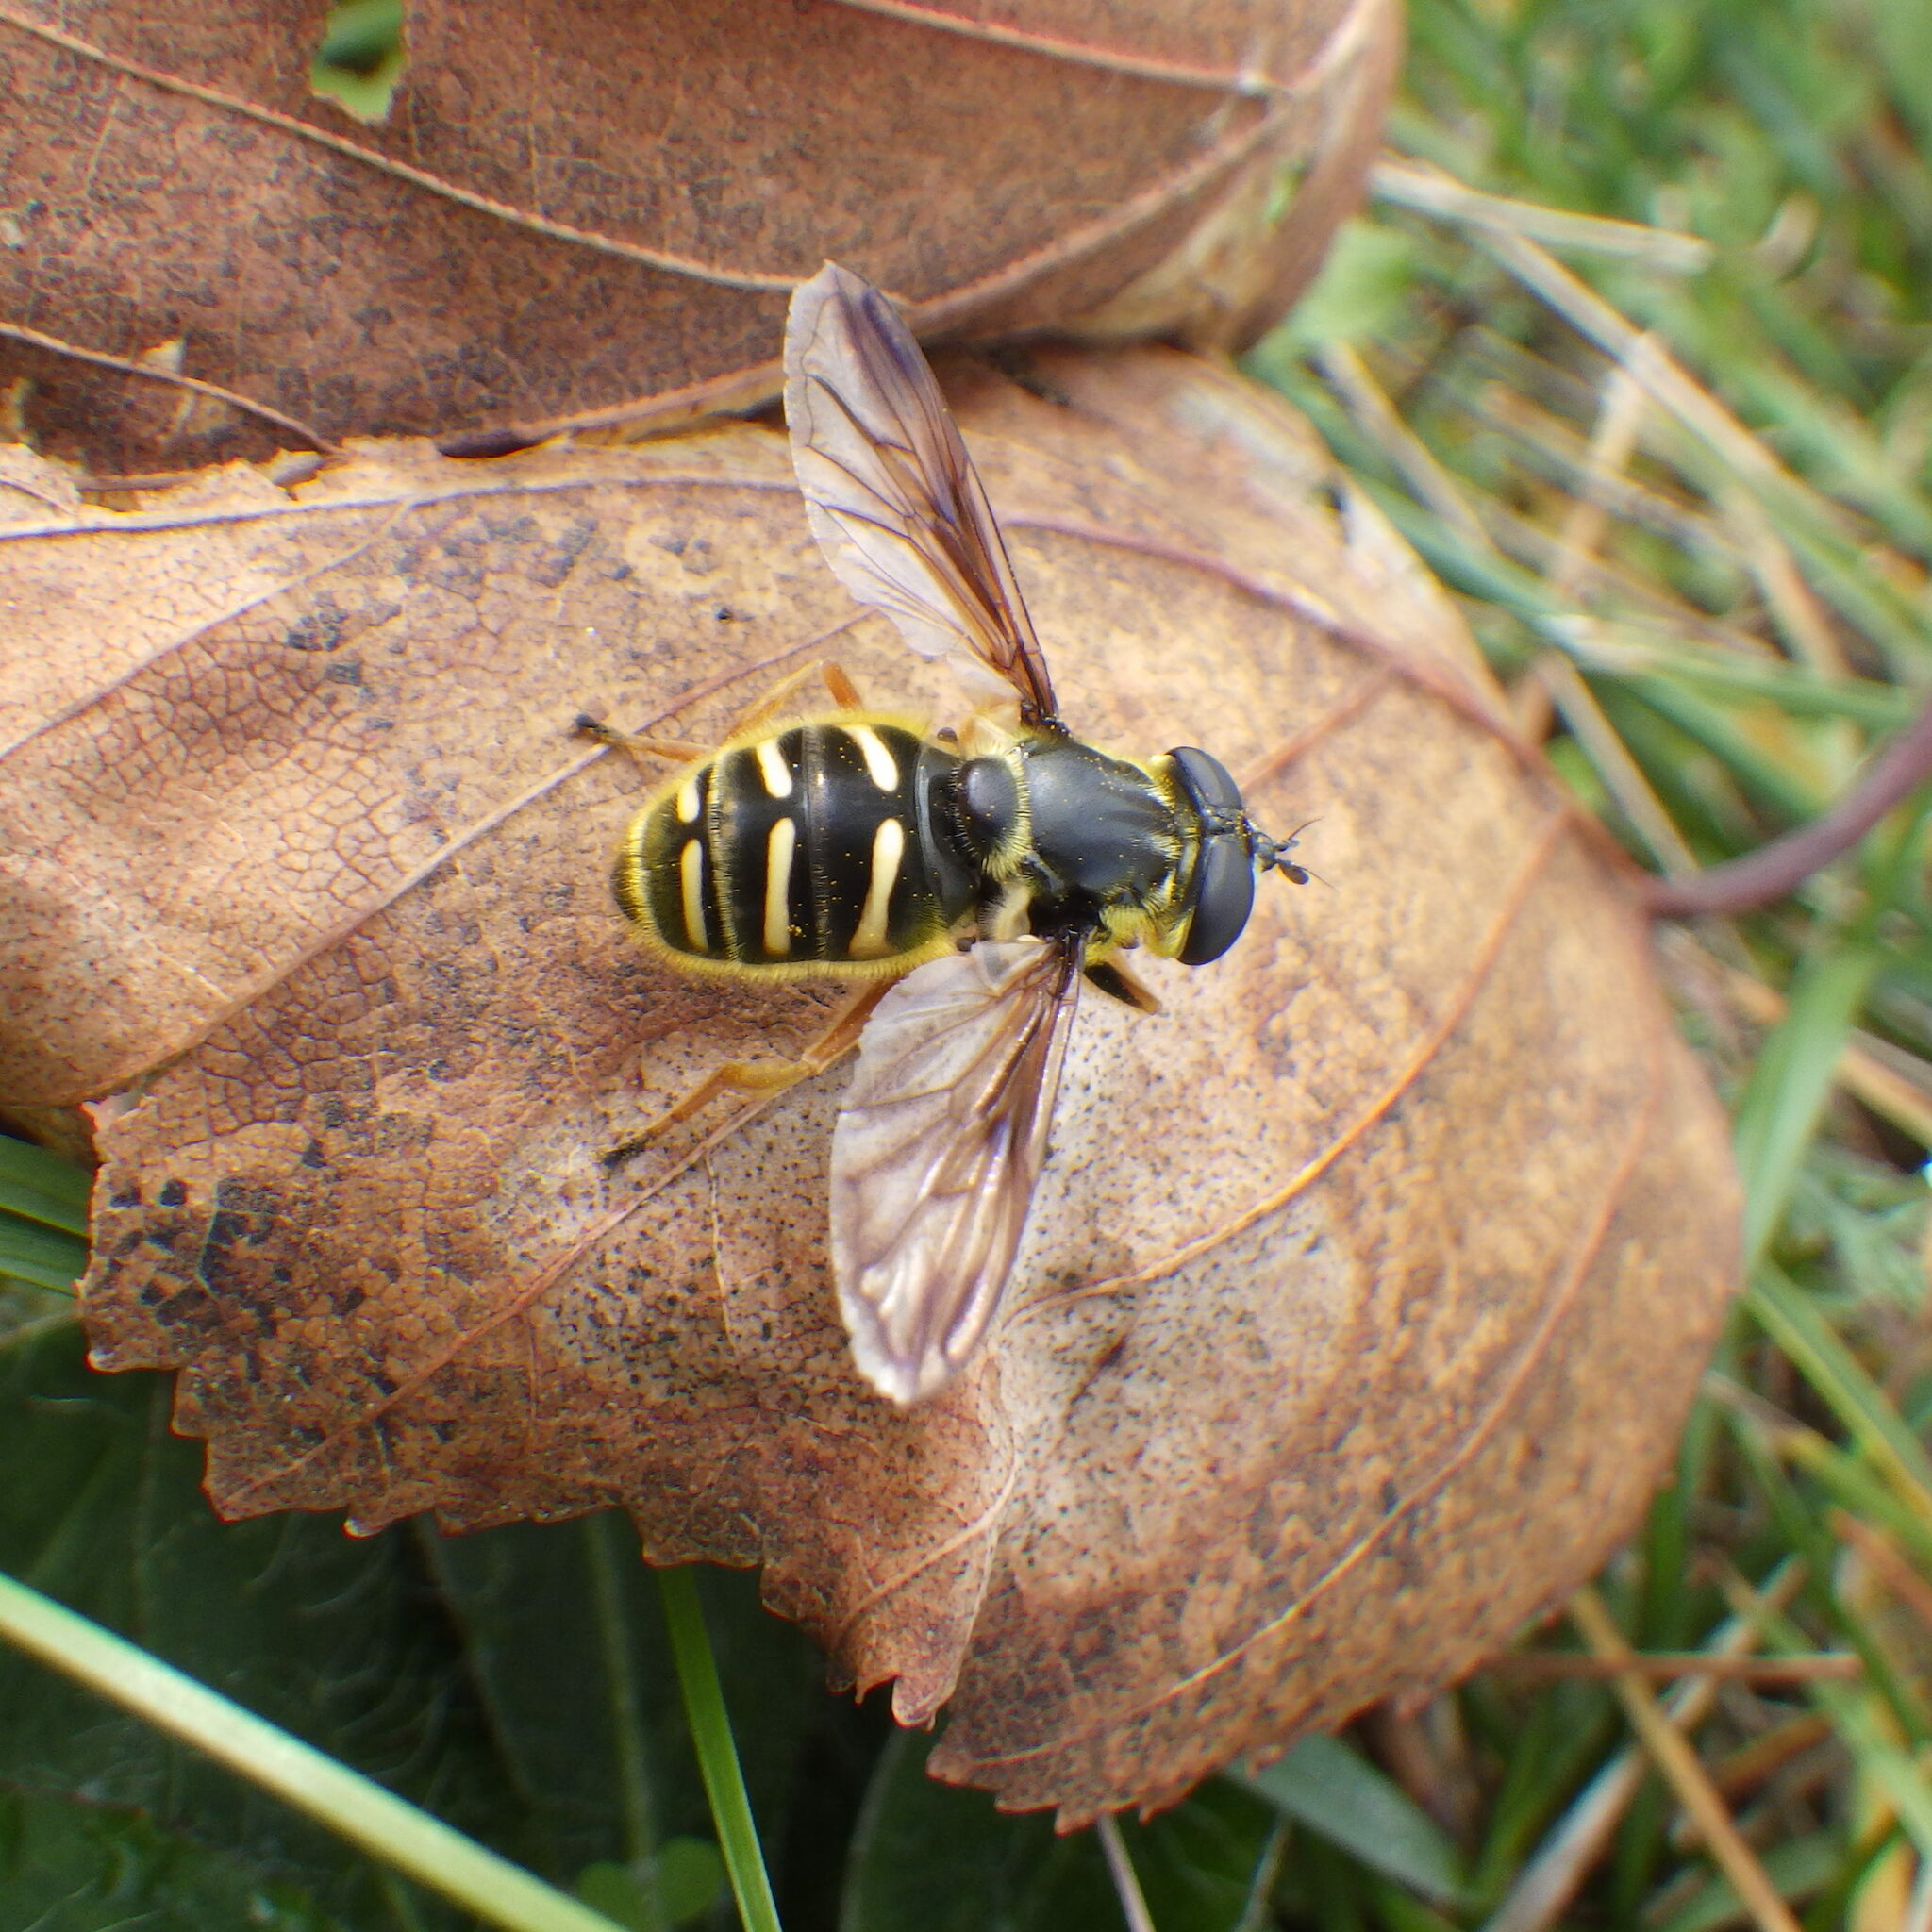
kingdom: Animalia
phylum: Arthropoda
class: Insecta
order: Diptera
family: Syrphidae
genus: Sericomyia
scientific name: Sericomyia chrysotoxoides
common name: Oblique-banded pond fly
